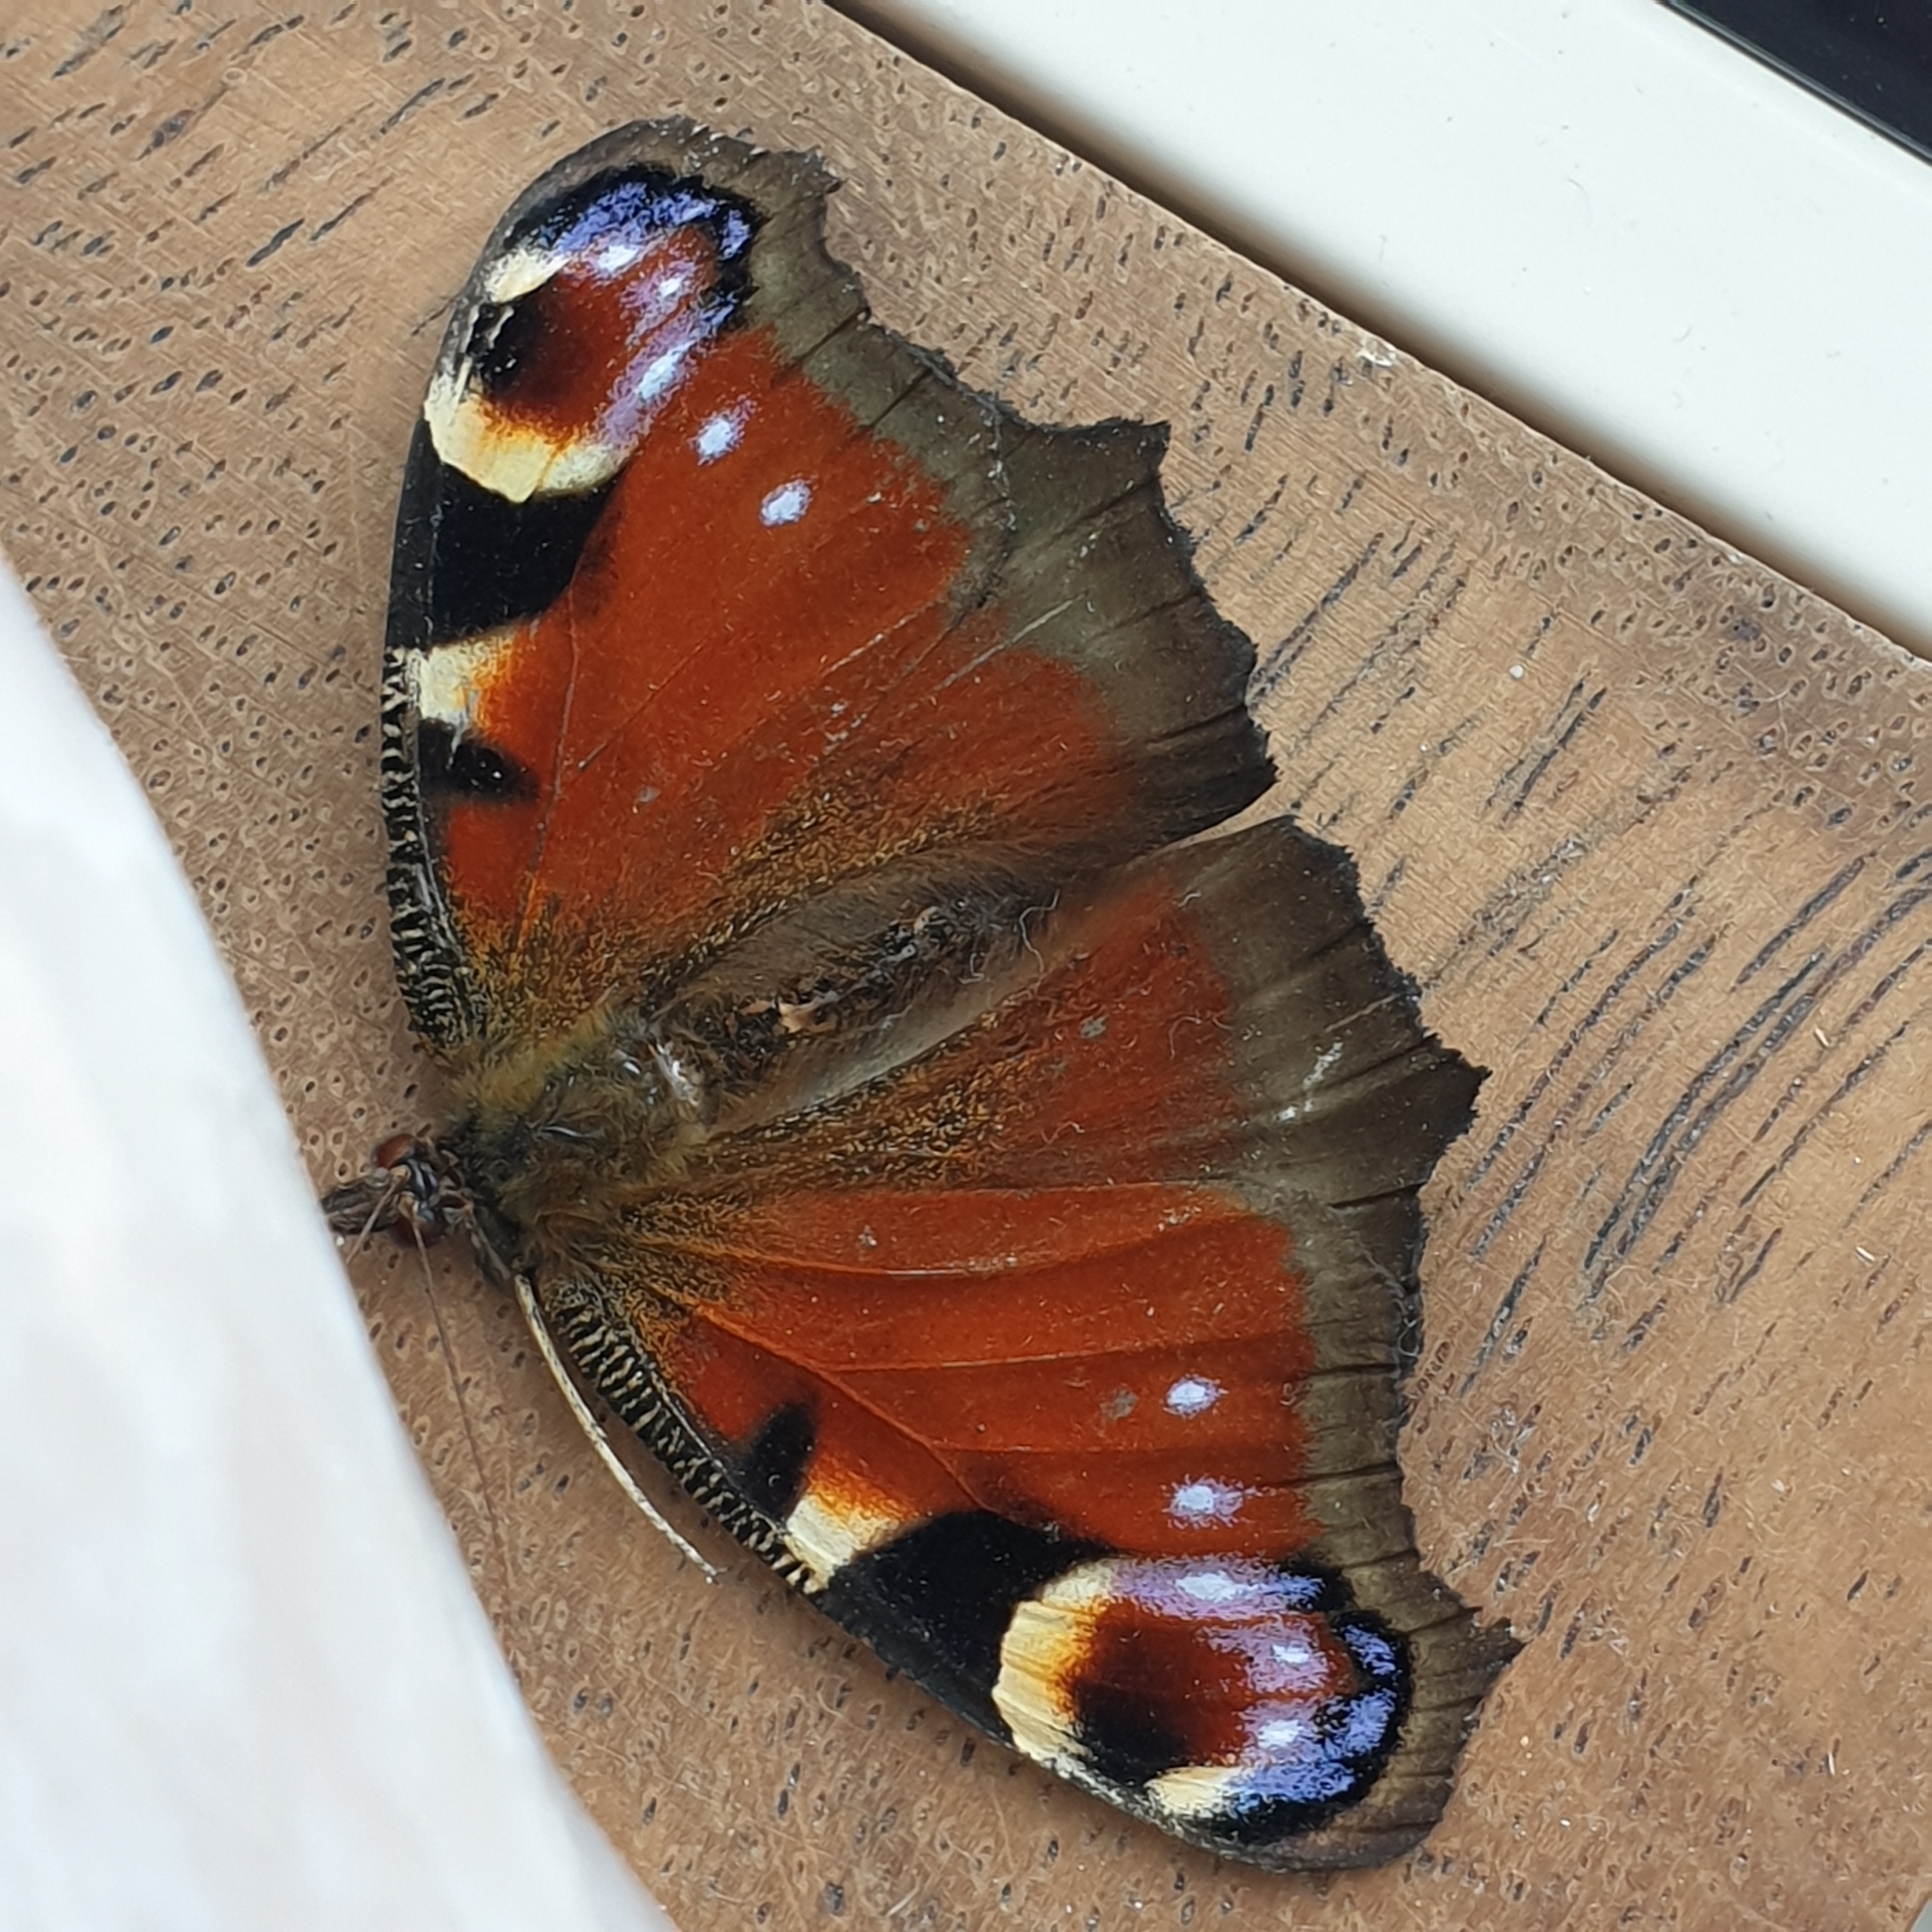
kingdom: Animalia
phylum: Arthropoda
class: Insecta
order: Lepidoptera
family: Nymphalidae
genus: Aglais
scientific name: Aglais io
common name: Peacock
